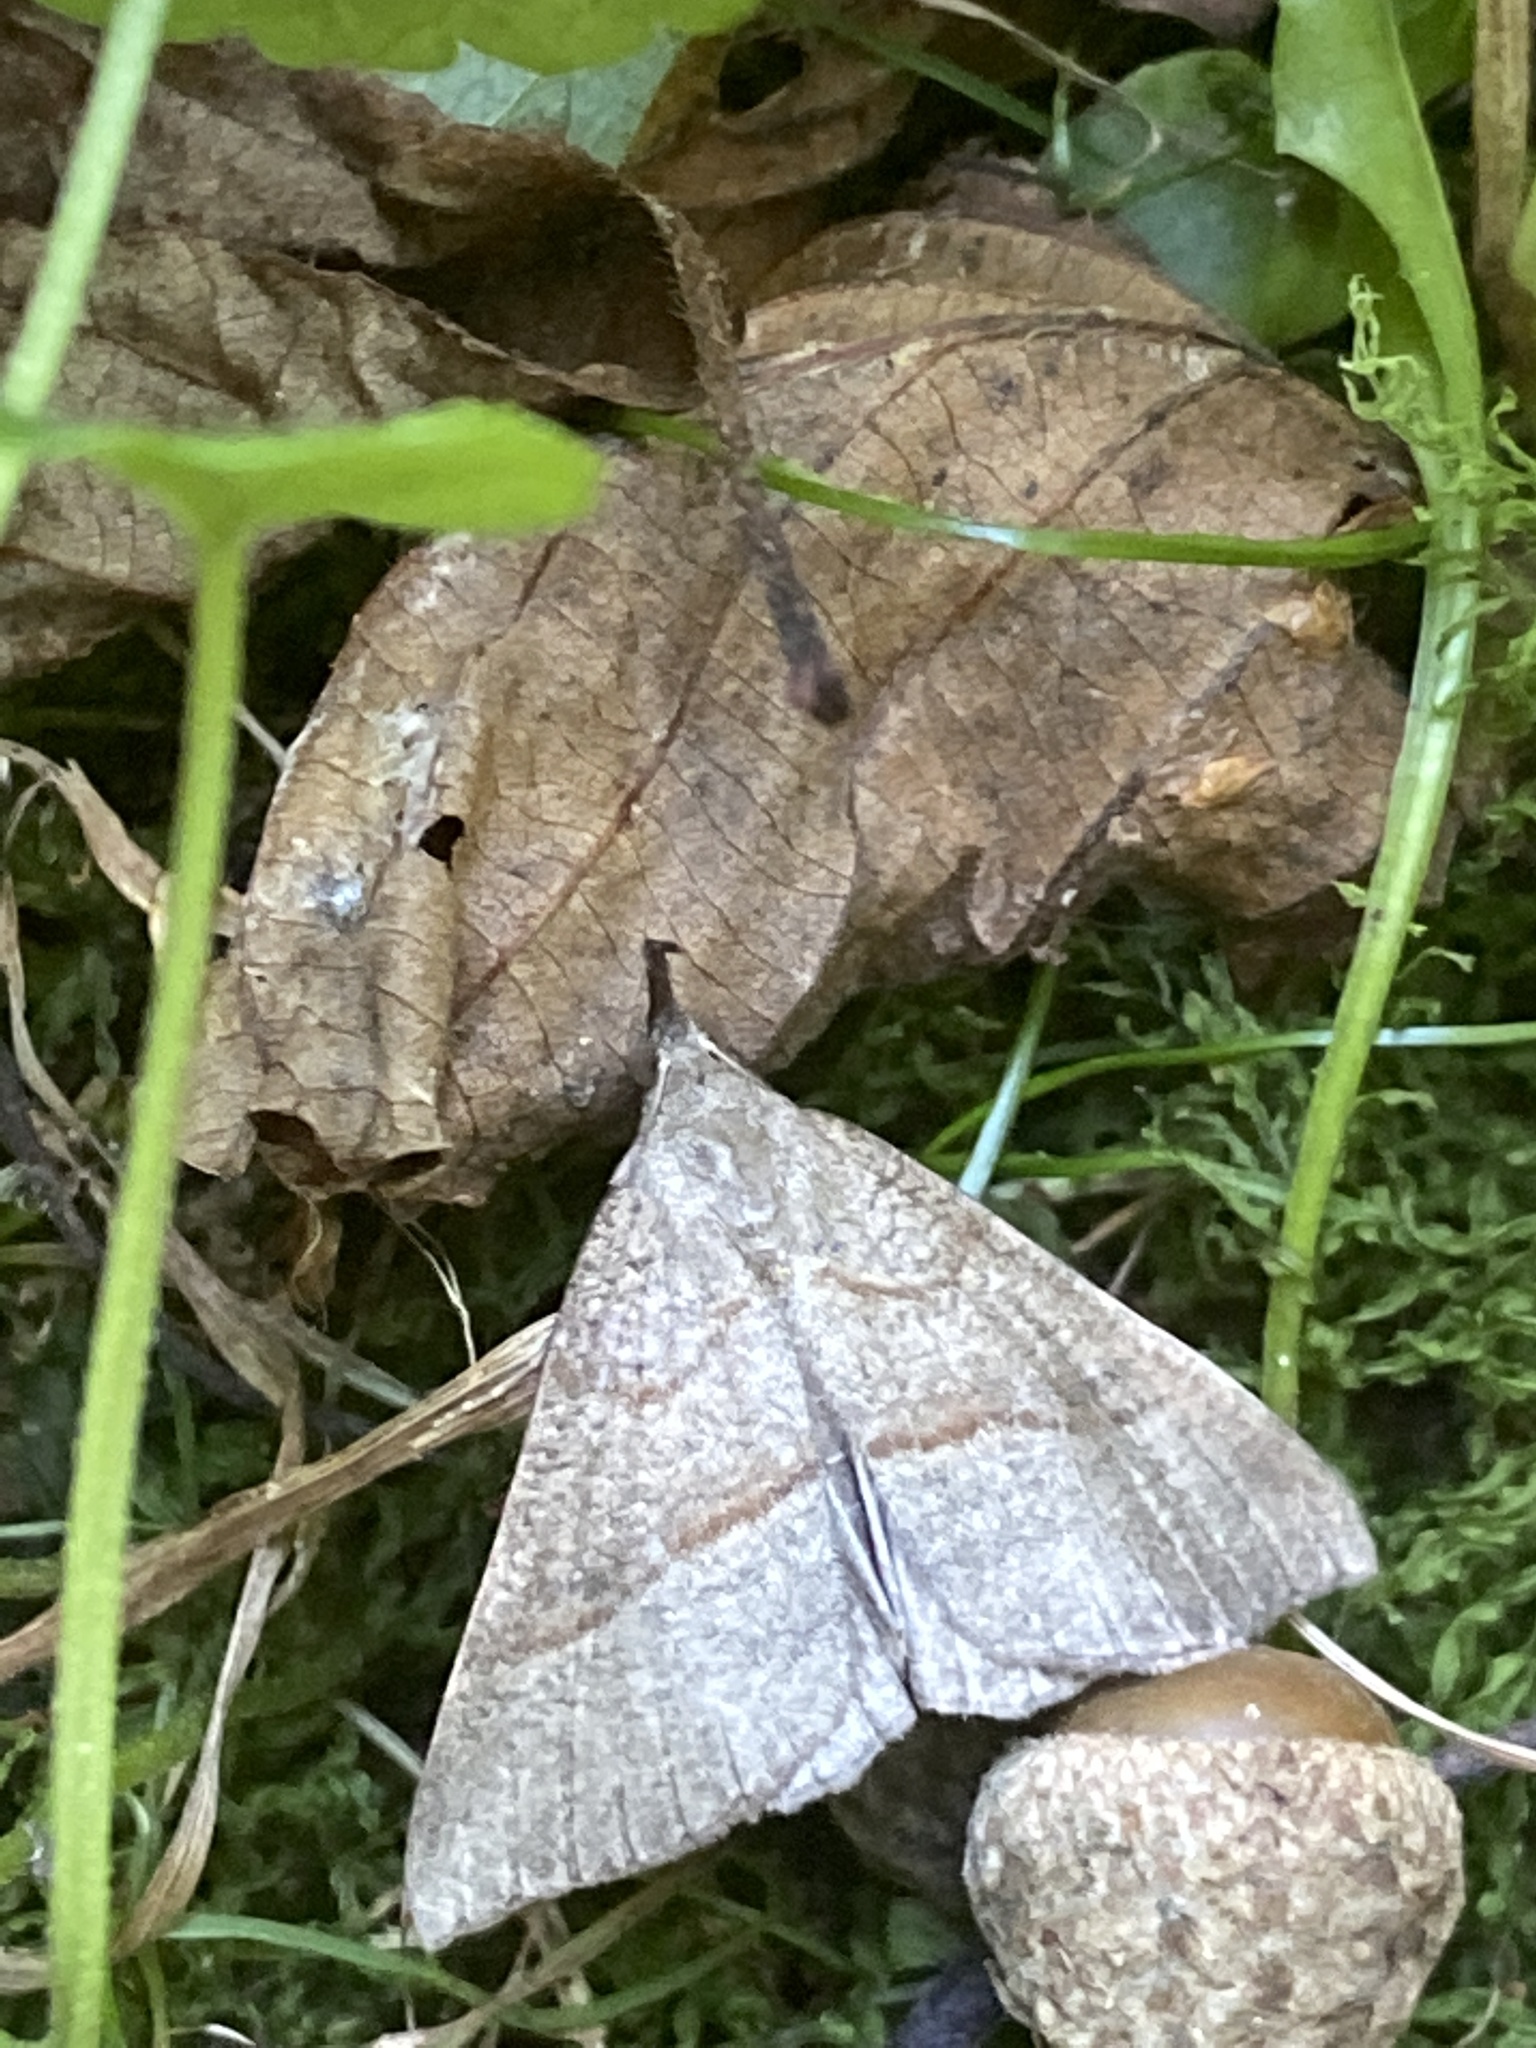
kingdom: Animalia
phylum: Arthropoda
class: Insecta
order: Lepidoptera
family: Erebidae
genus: Hypena
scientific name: Hypena proboscidalis
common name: Snout
